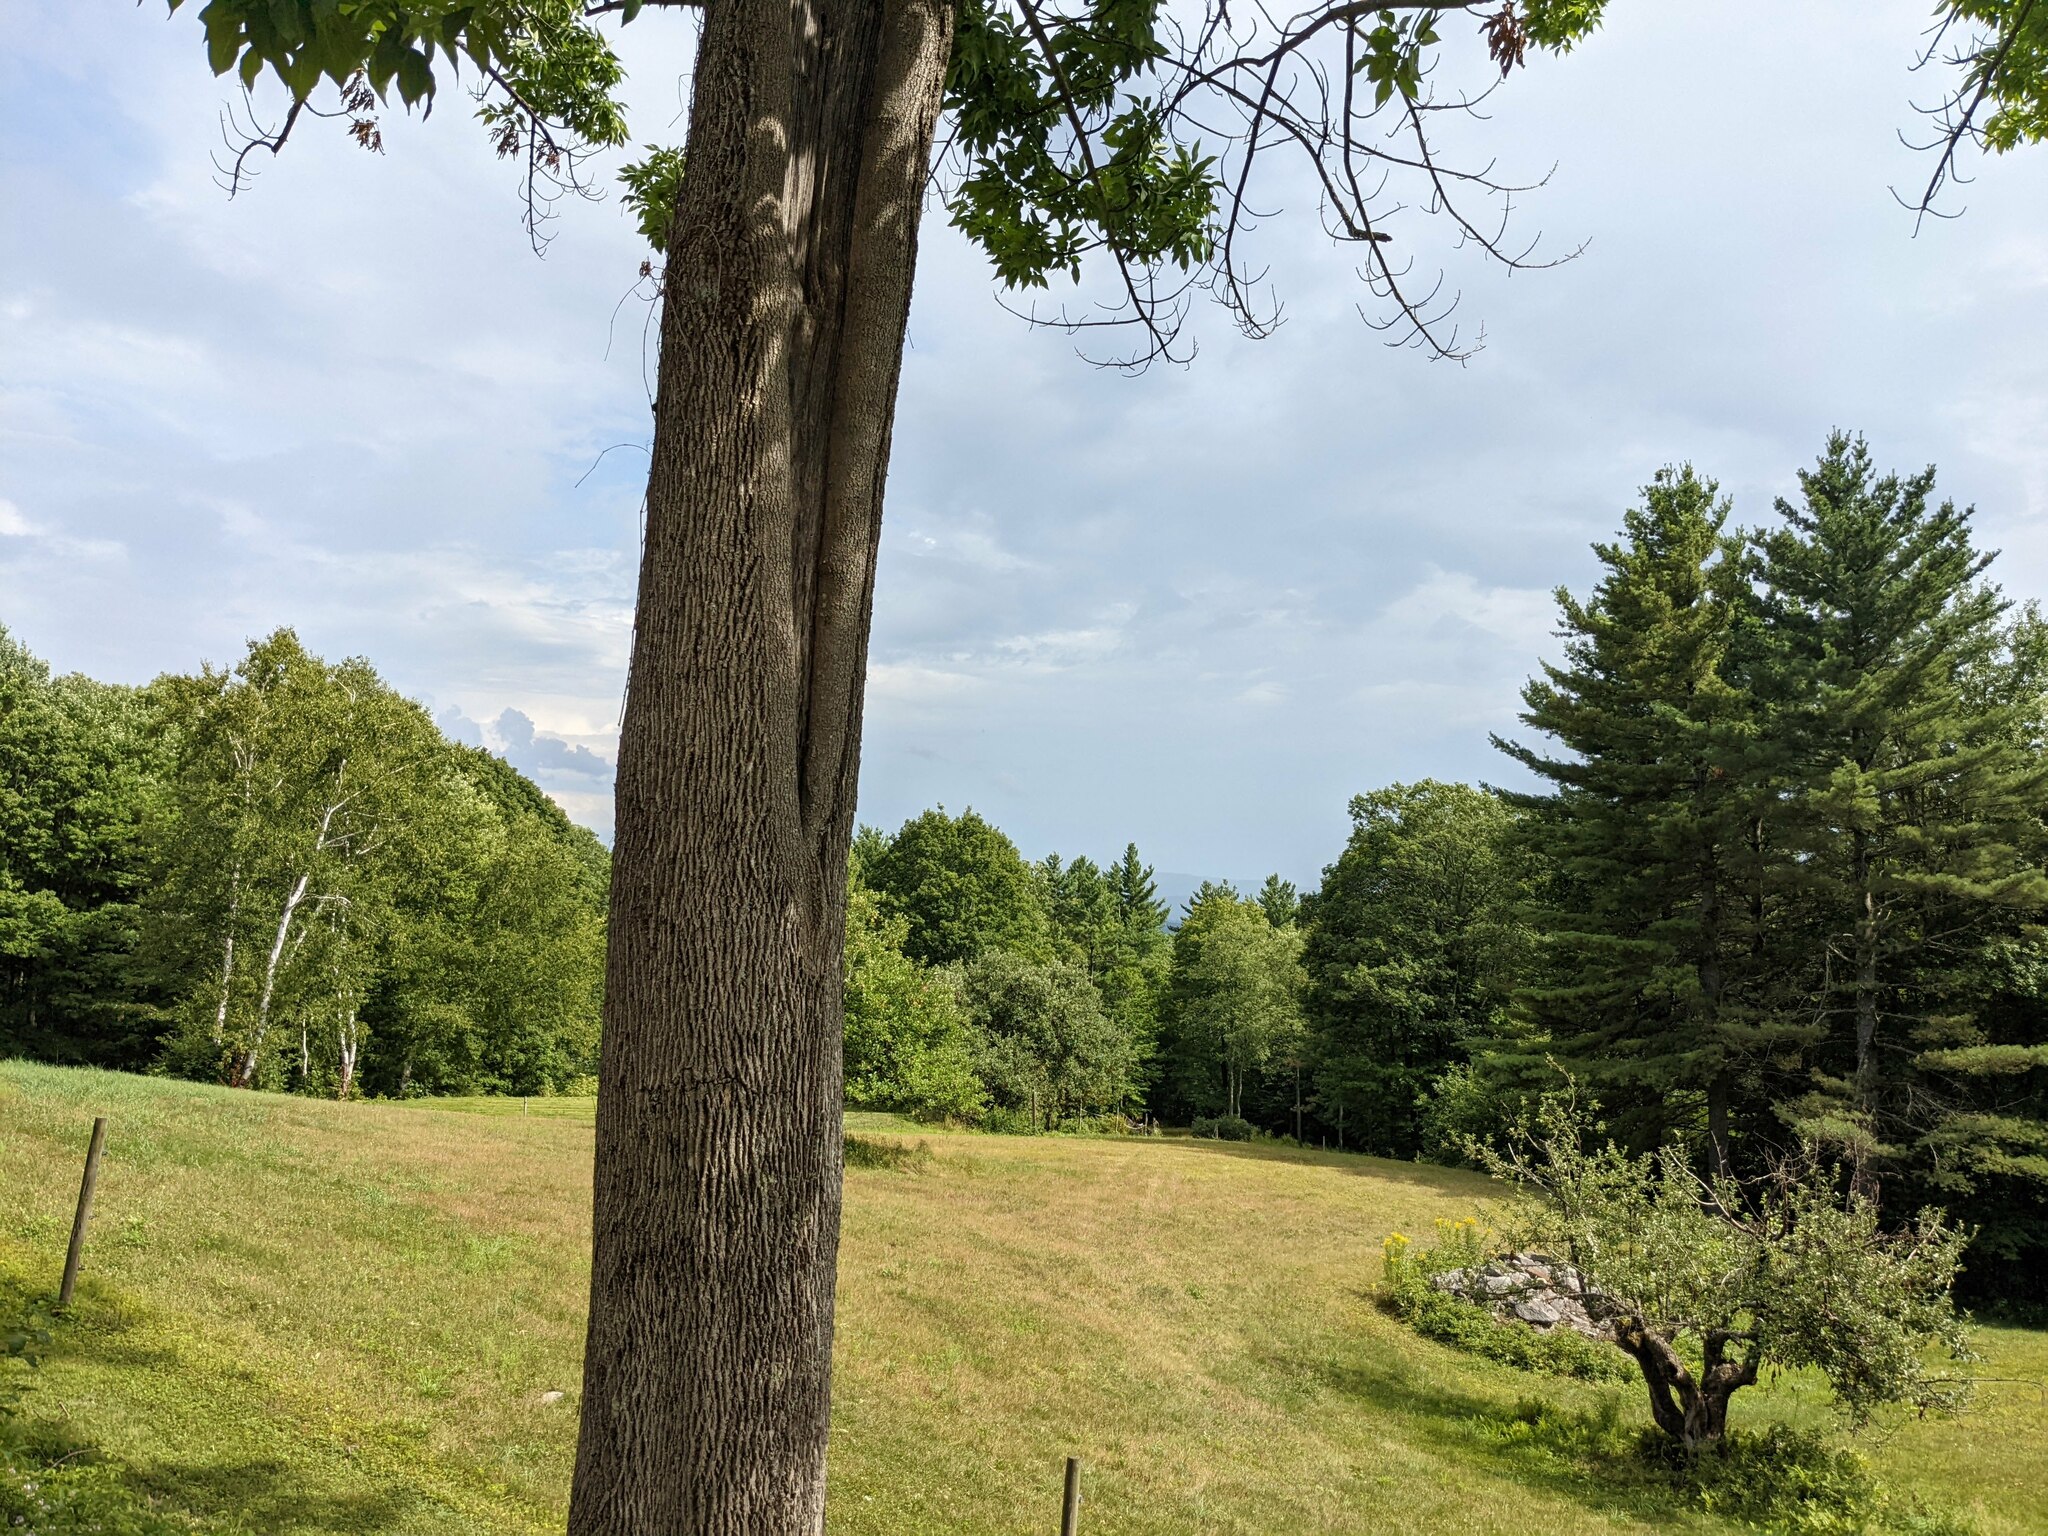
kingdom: Plantae
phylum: Tracheophyta
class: Pinopsida
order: Pinales
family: Pinaceae
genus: Pinus
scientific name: Pinus strobus
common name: Weymouth pine
